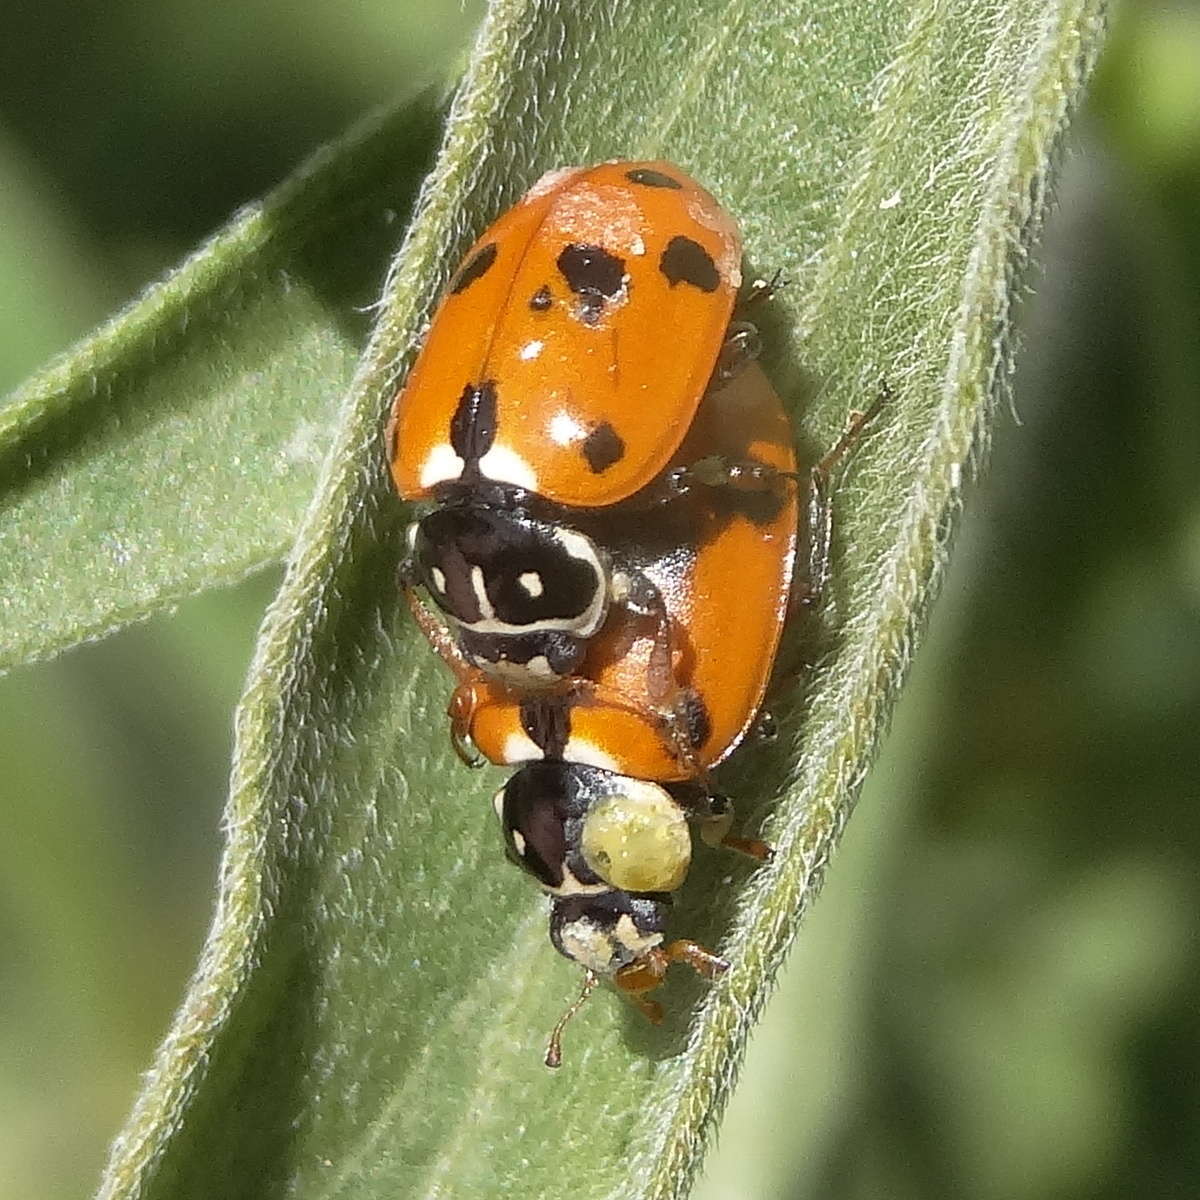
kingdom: Animalia
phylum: Arthropoda
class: Insecta
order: Coleoptera
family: Coccinellidae
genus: Hippodamia
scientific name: Hippodamia variegata
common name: Ladybird beetle
